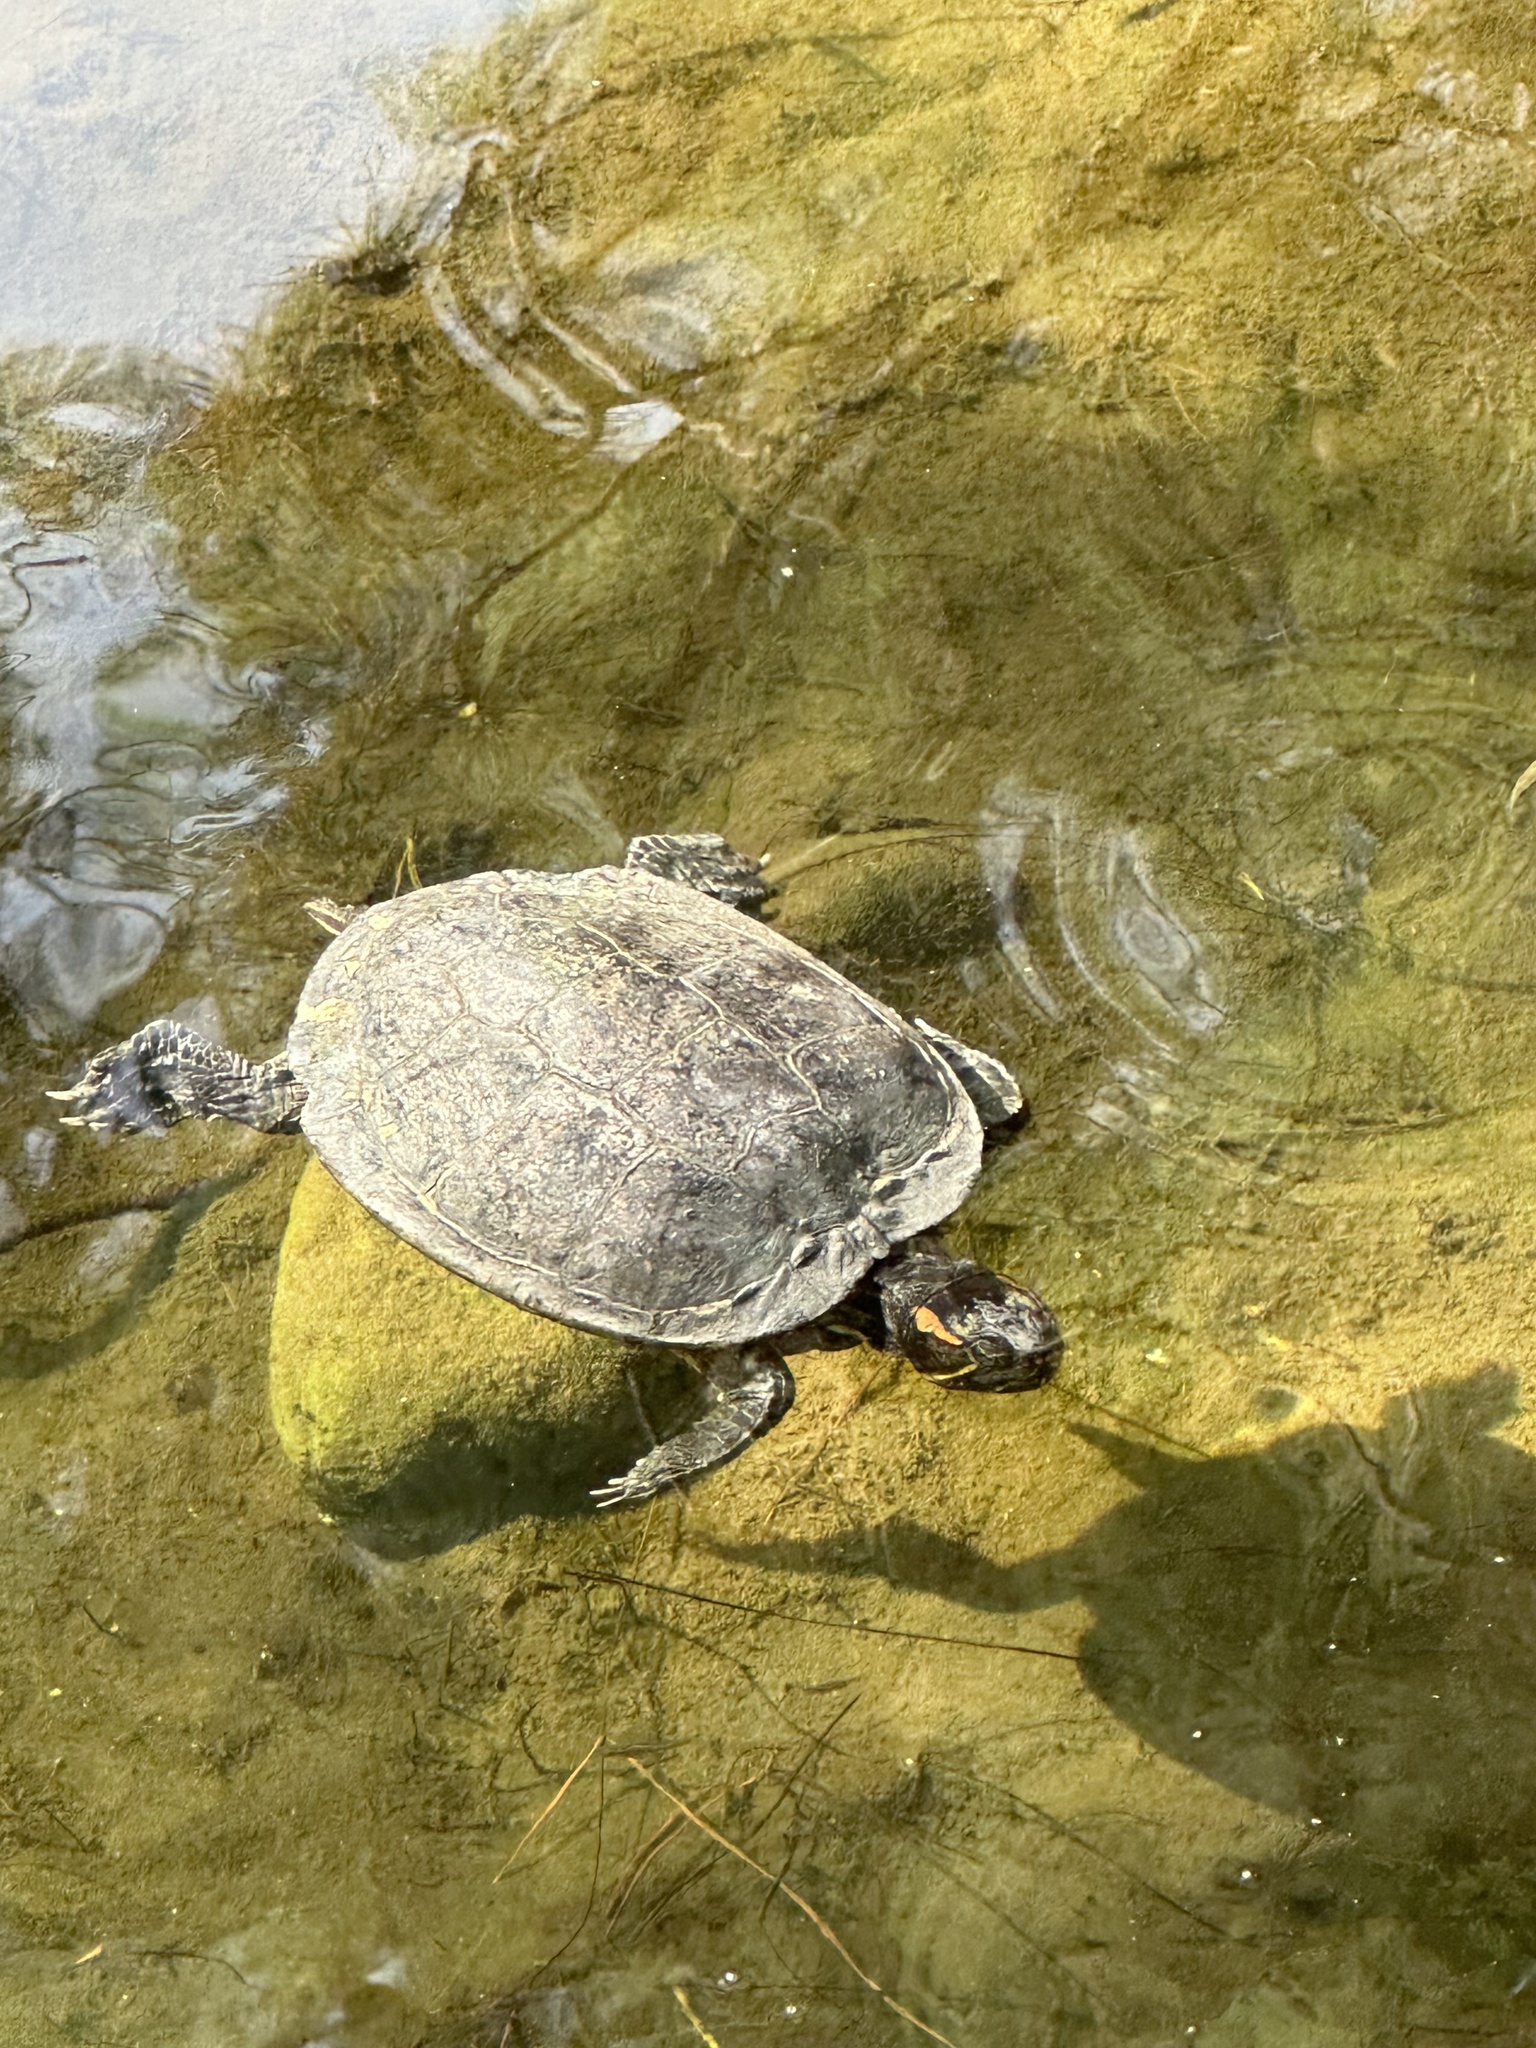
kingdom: Animalia
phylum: Chordata
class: Testudines
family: Emydidae
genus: Trachemys
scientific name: Trachemys scripta
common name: Slider
